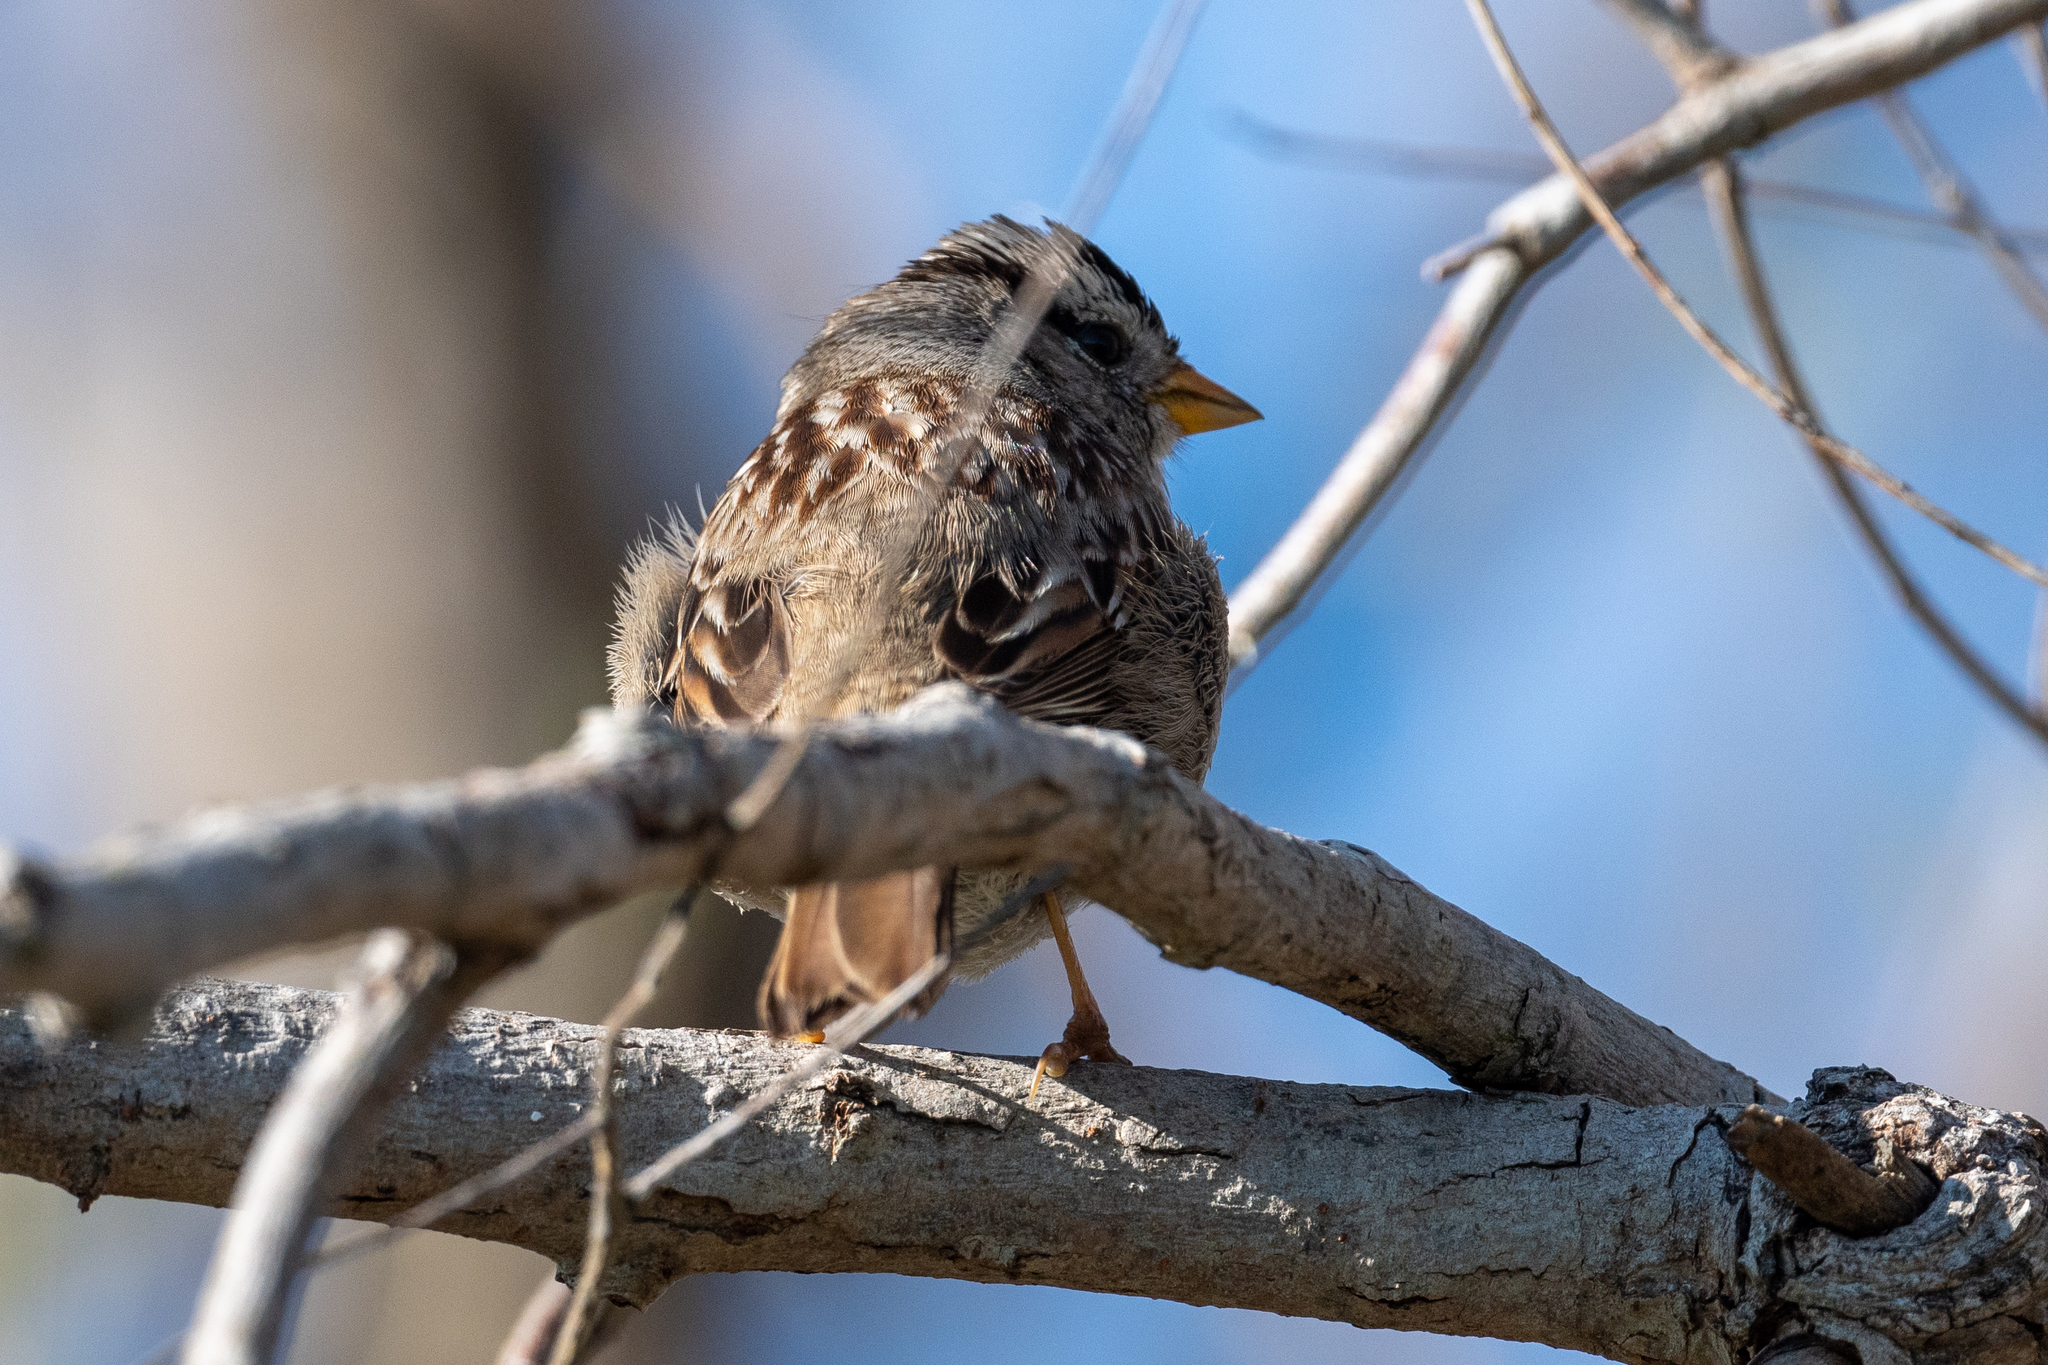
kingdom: Animalia
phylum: Chordata
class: Aves
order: Passeriformes
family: Passerellidae
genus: Zonotrichia
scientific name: Zonotrichia leucophrys
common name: White-crowned sparrow
